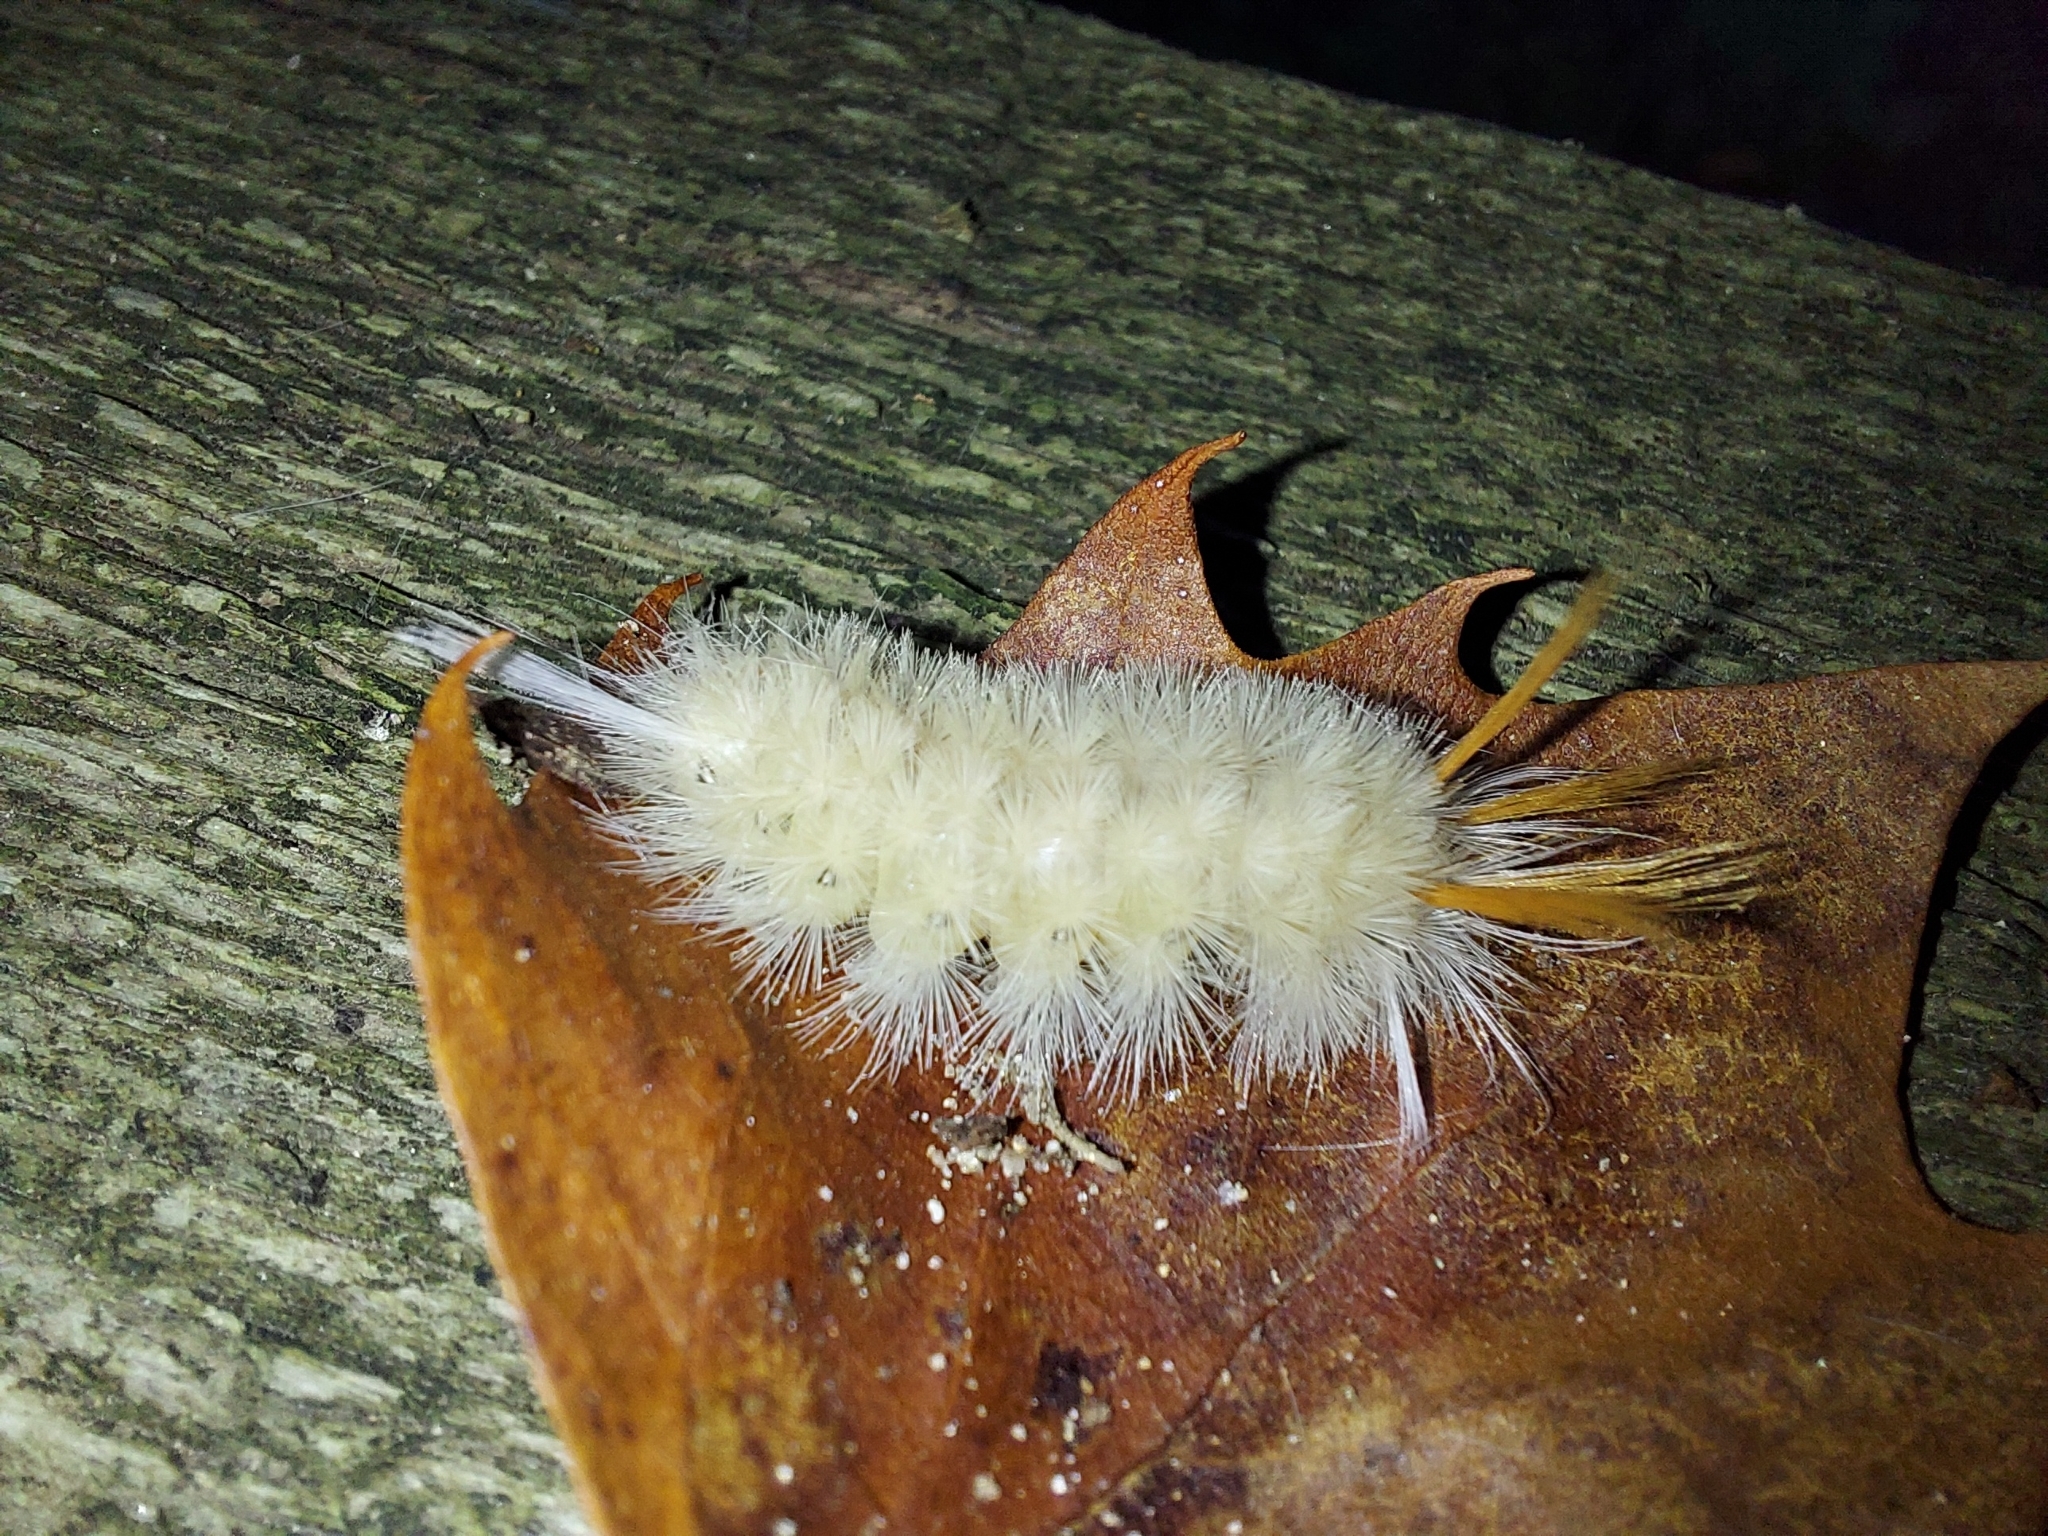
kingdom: Animalia
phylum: Arthropoda
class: Insecta
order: Lepidoptera
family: Erebidae
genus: Halysidota
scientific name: Halysidota harrisii
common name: Sycamore tussock moth
